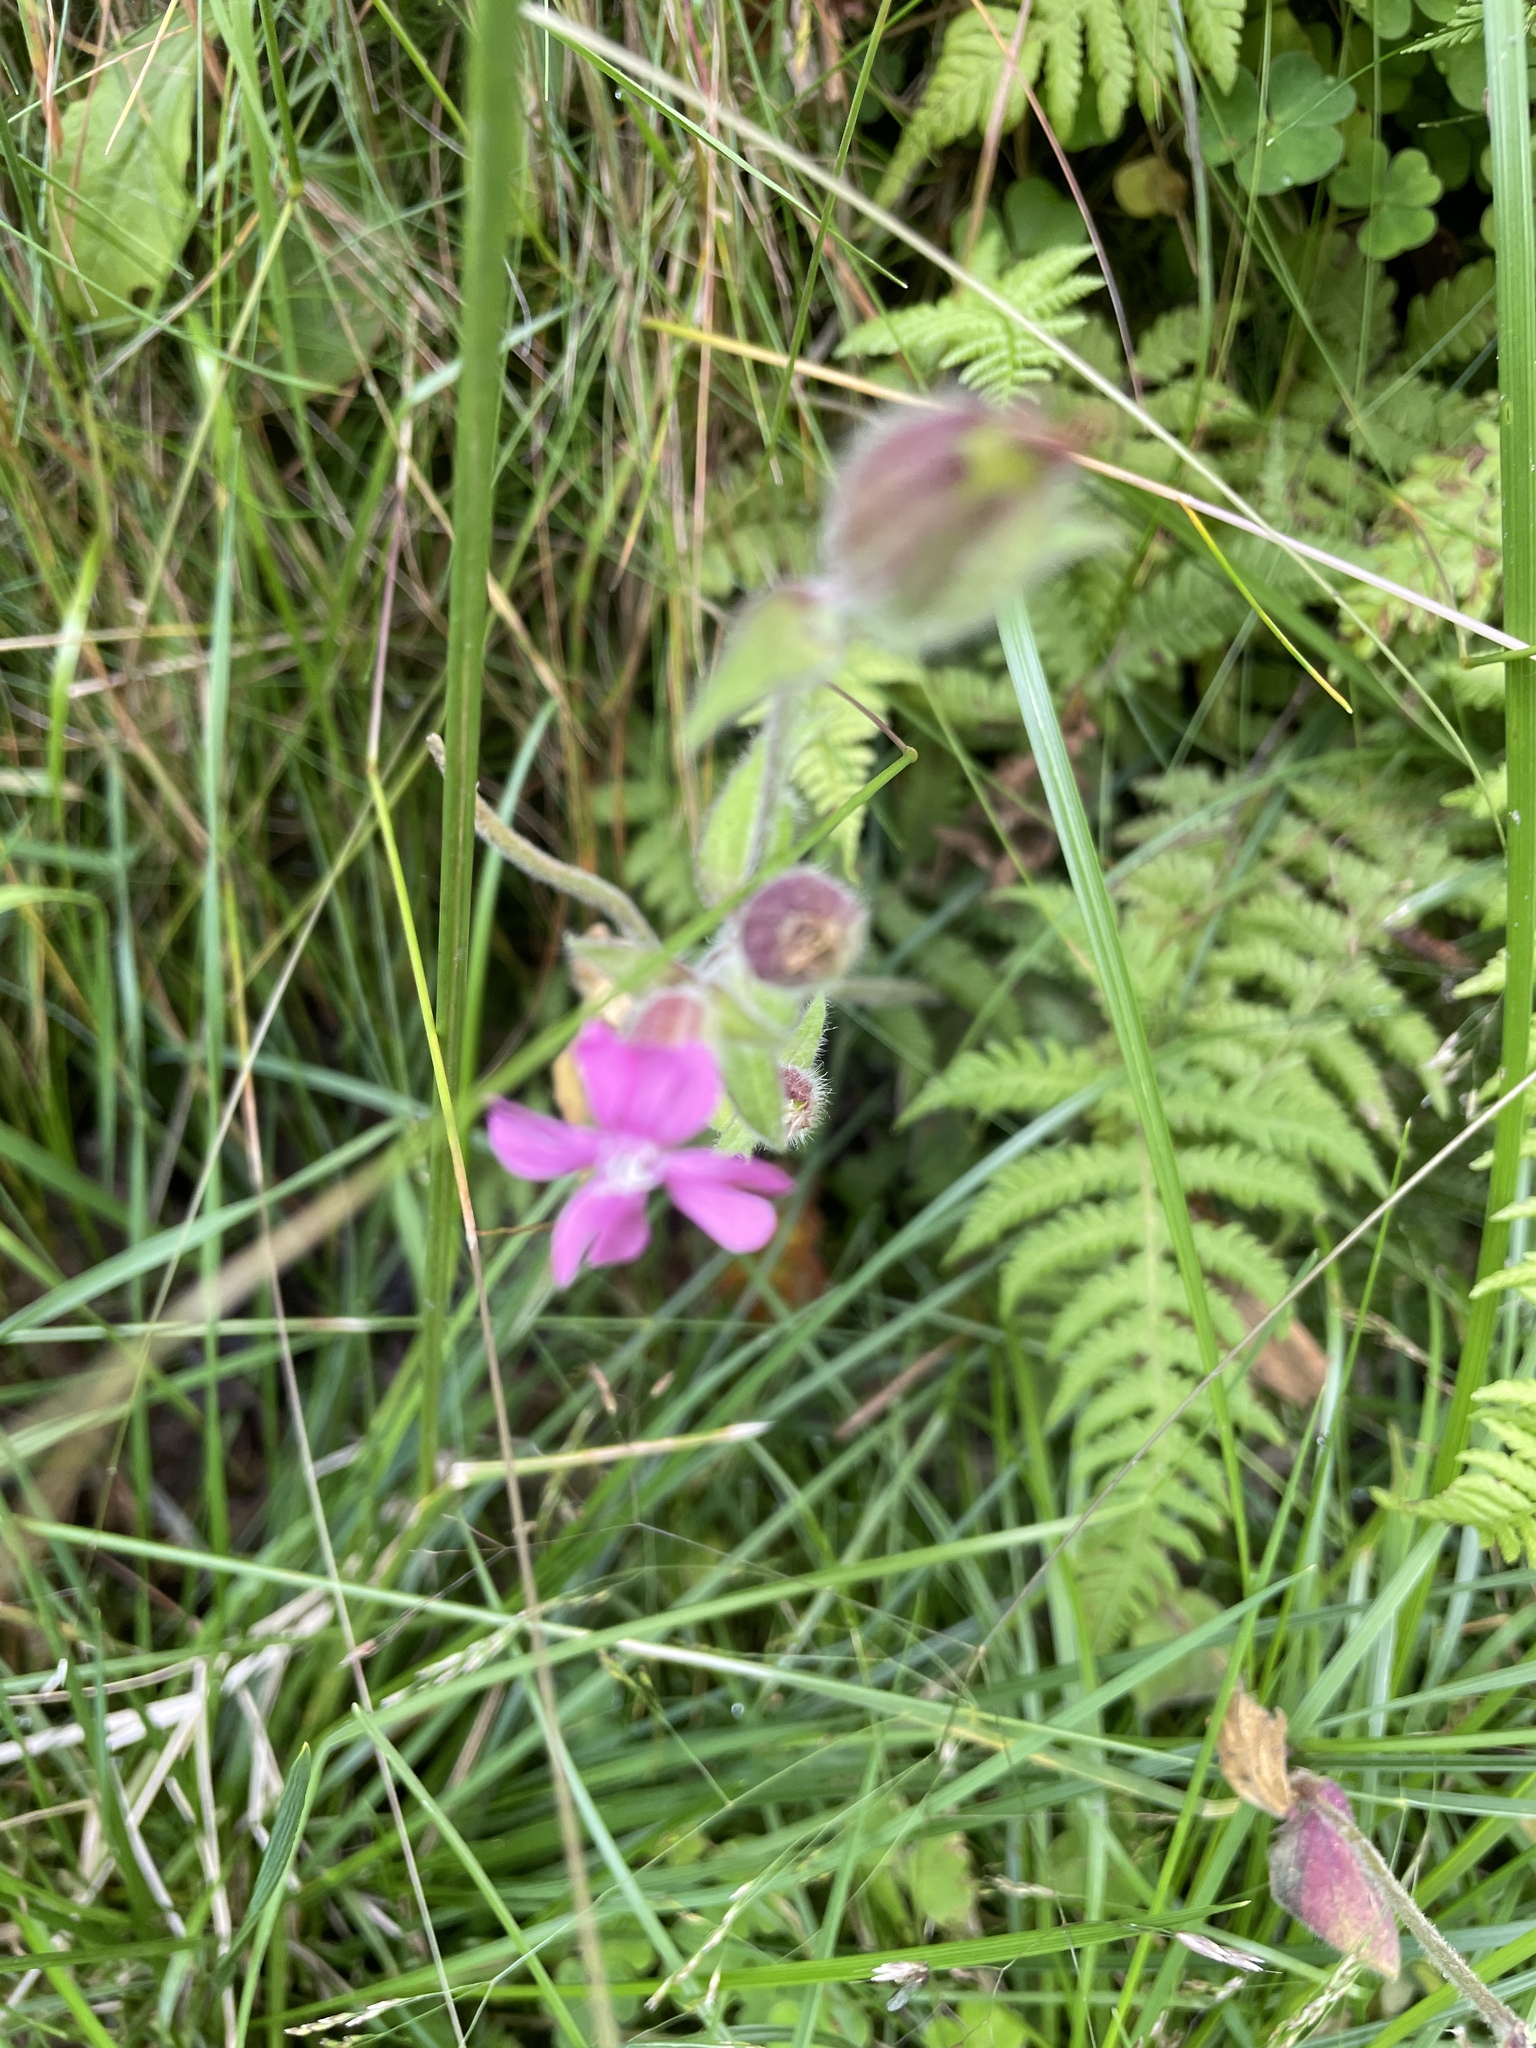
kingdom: Plantae
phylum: Tracheophyta
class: Magnoliopsida
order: Caryophyllales
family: Caryophyllaceae
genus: Silene
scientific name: Silene dioica
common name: Red campion
